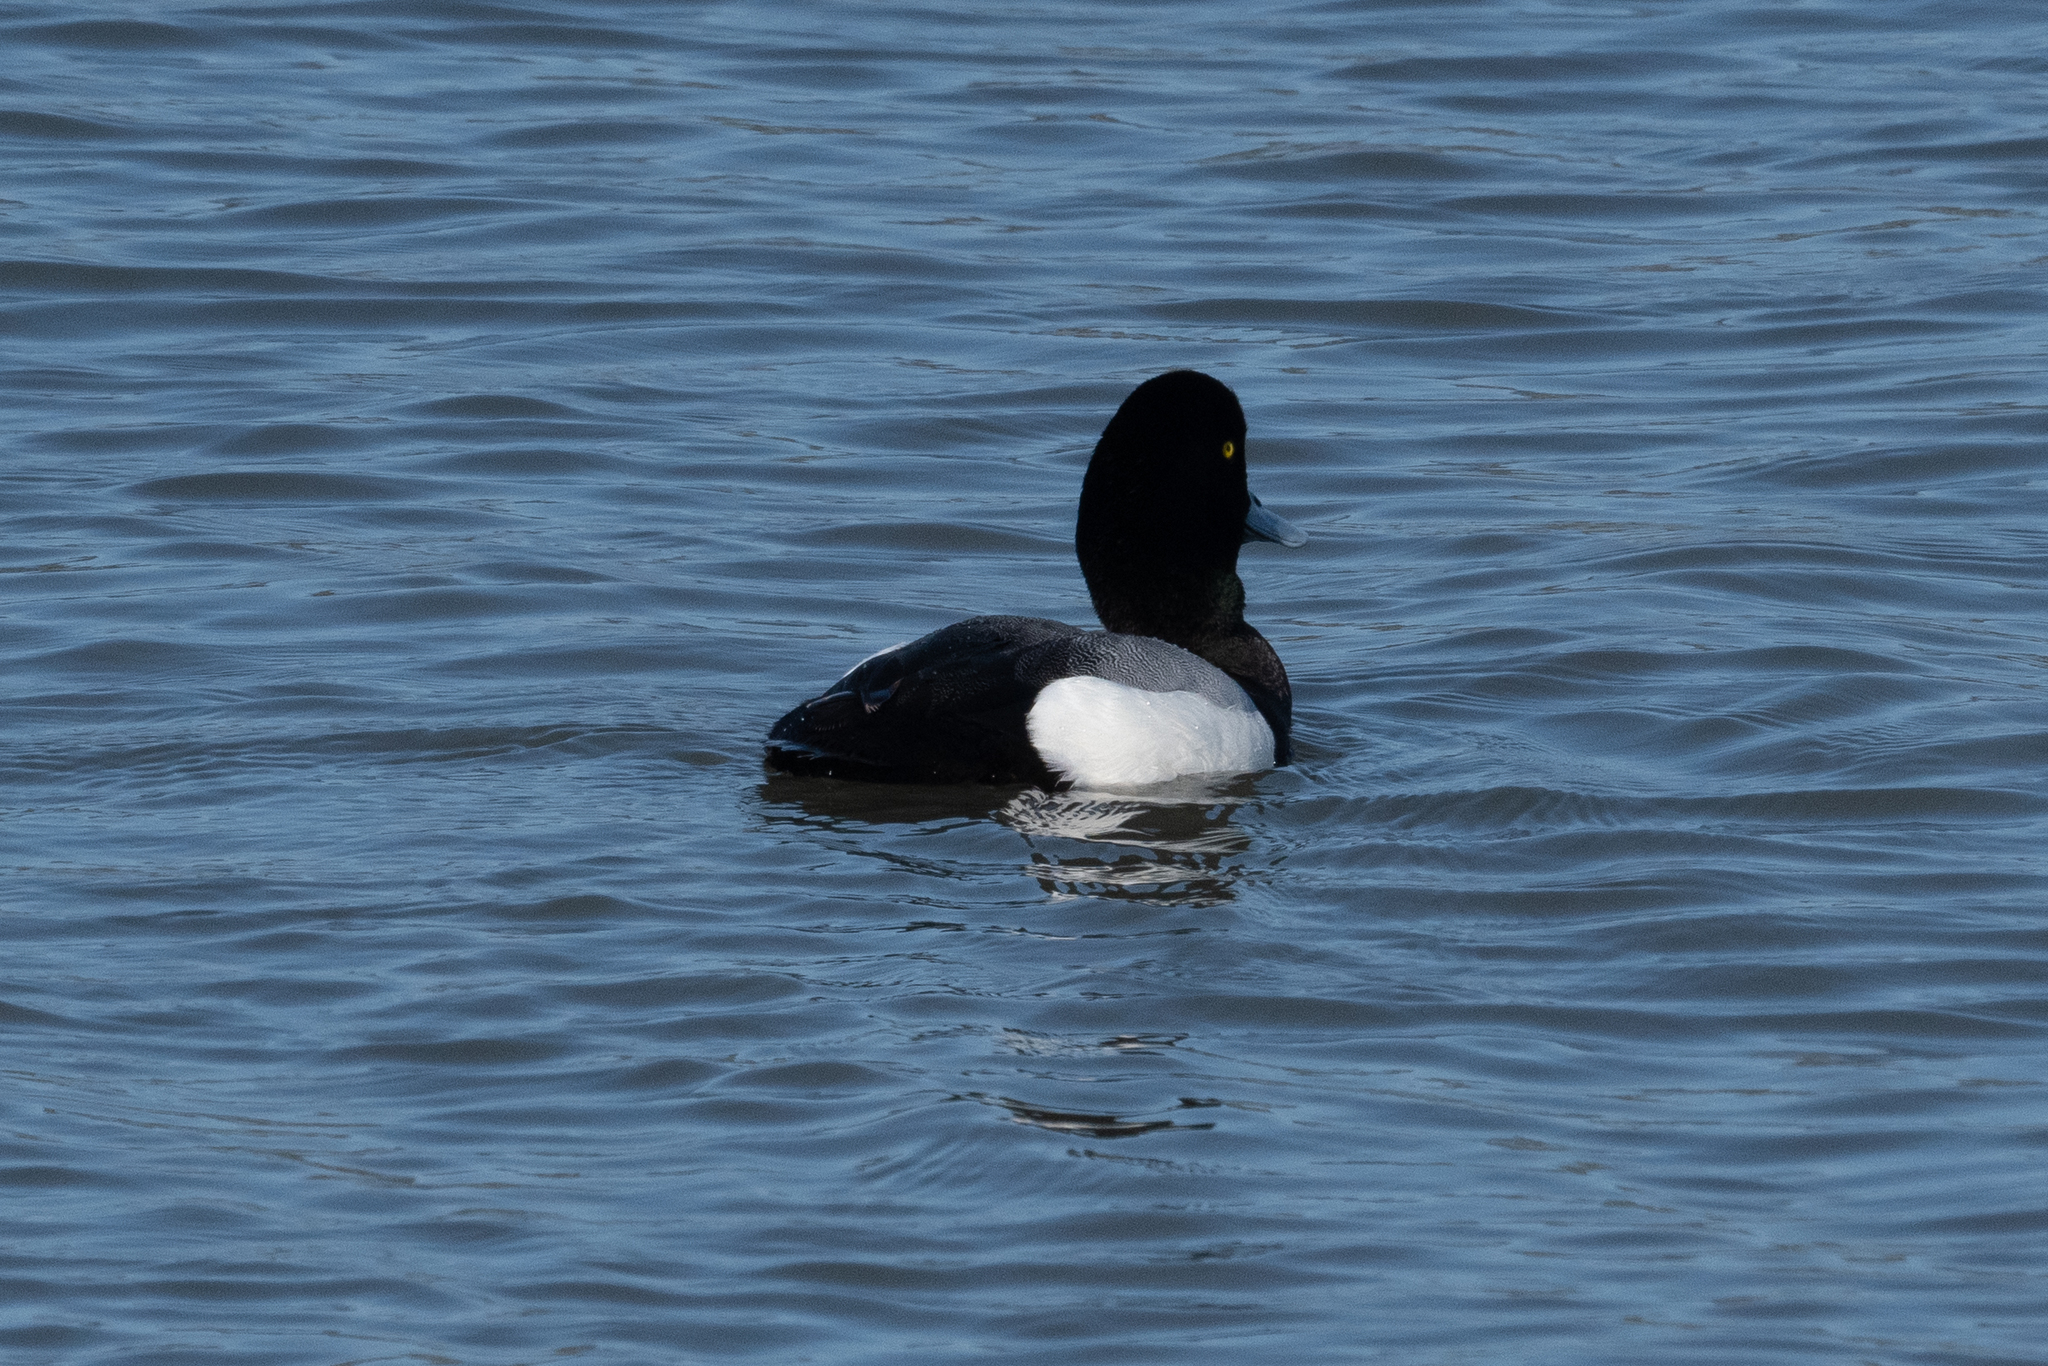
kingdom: Animalia
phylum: Chordata
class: Aves
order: Anseriformes
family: Anatidae
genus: Aythya
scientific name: Aythya marila
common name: Greater scaup
